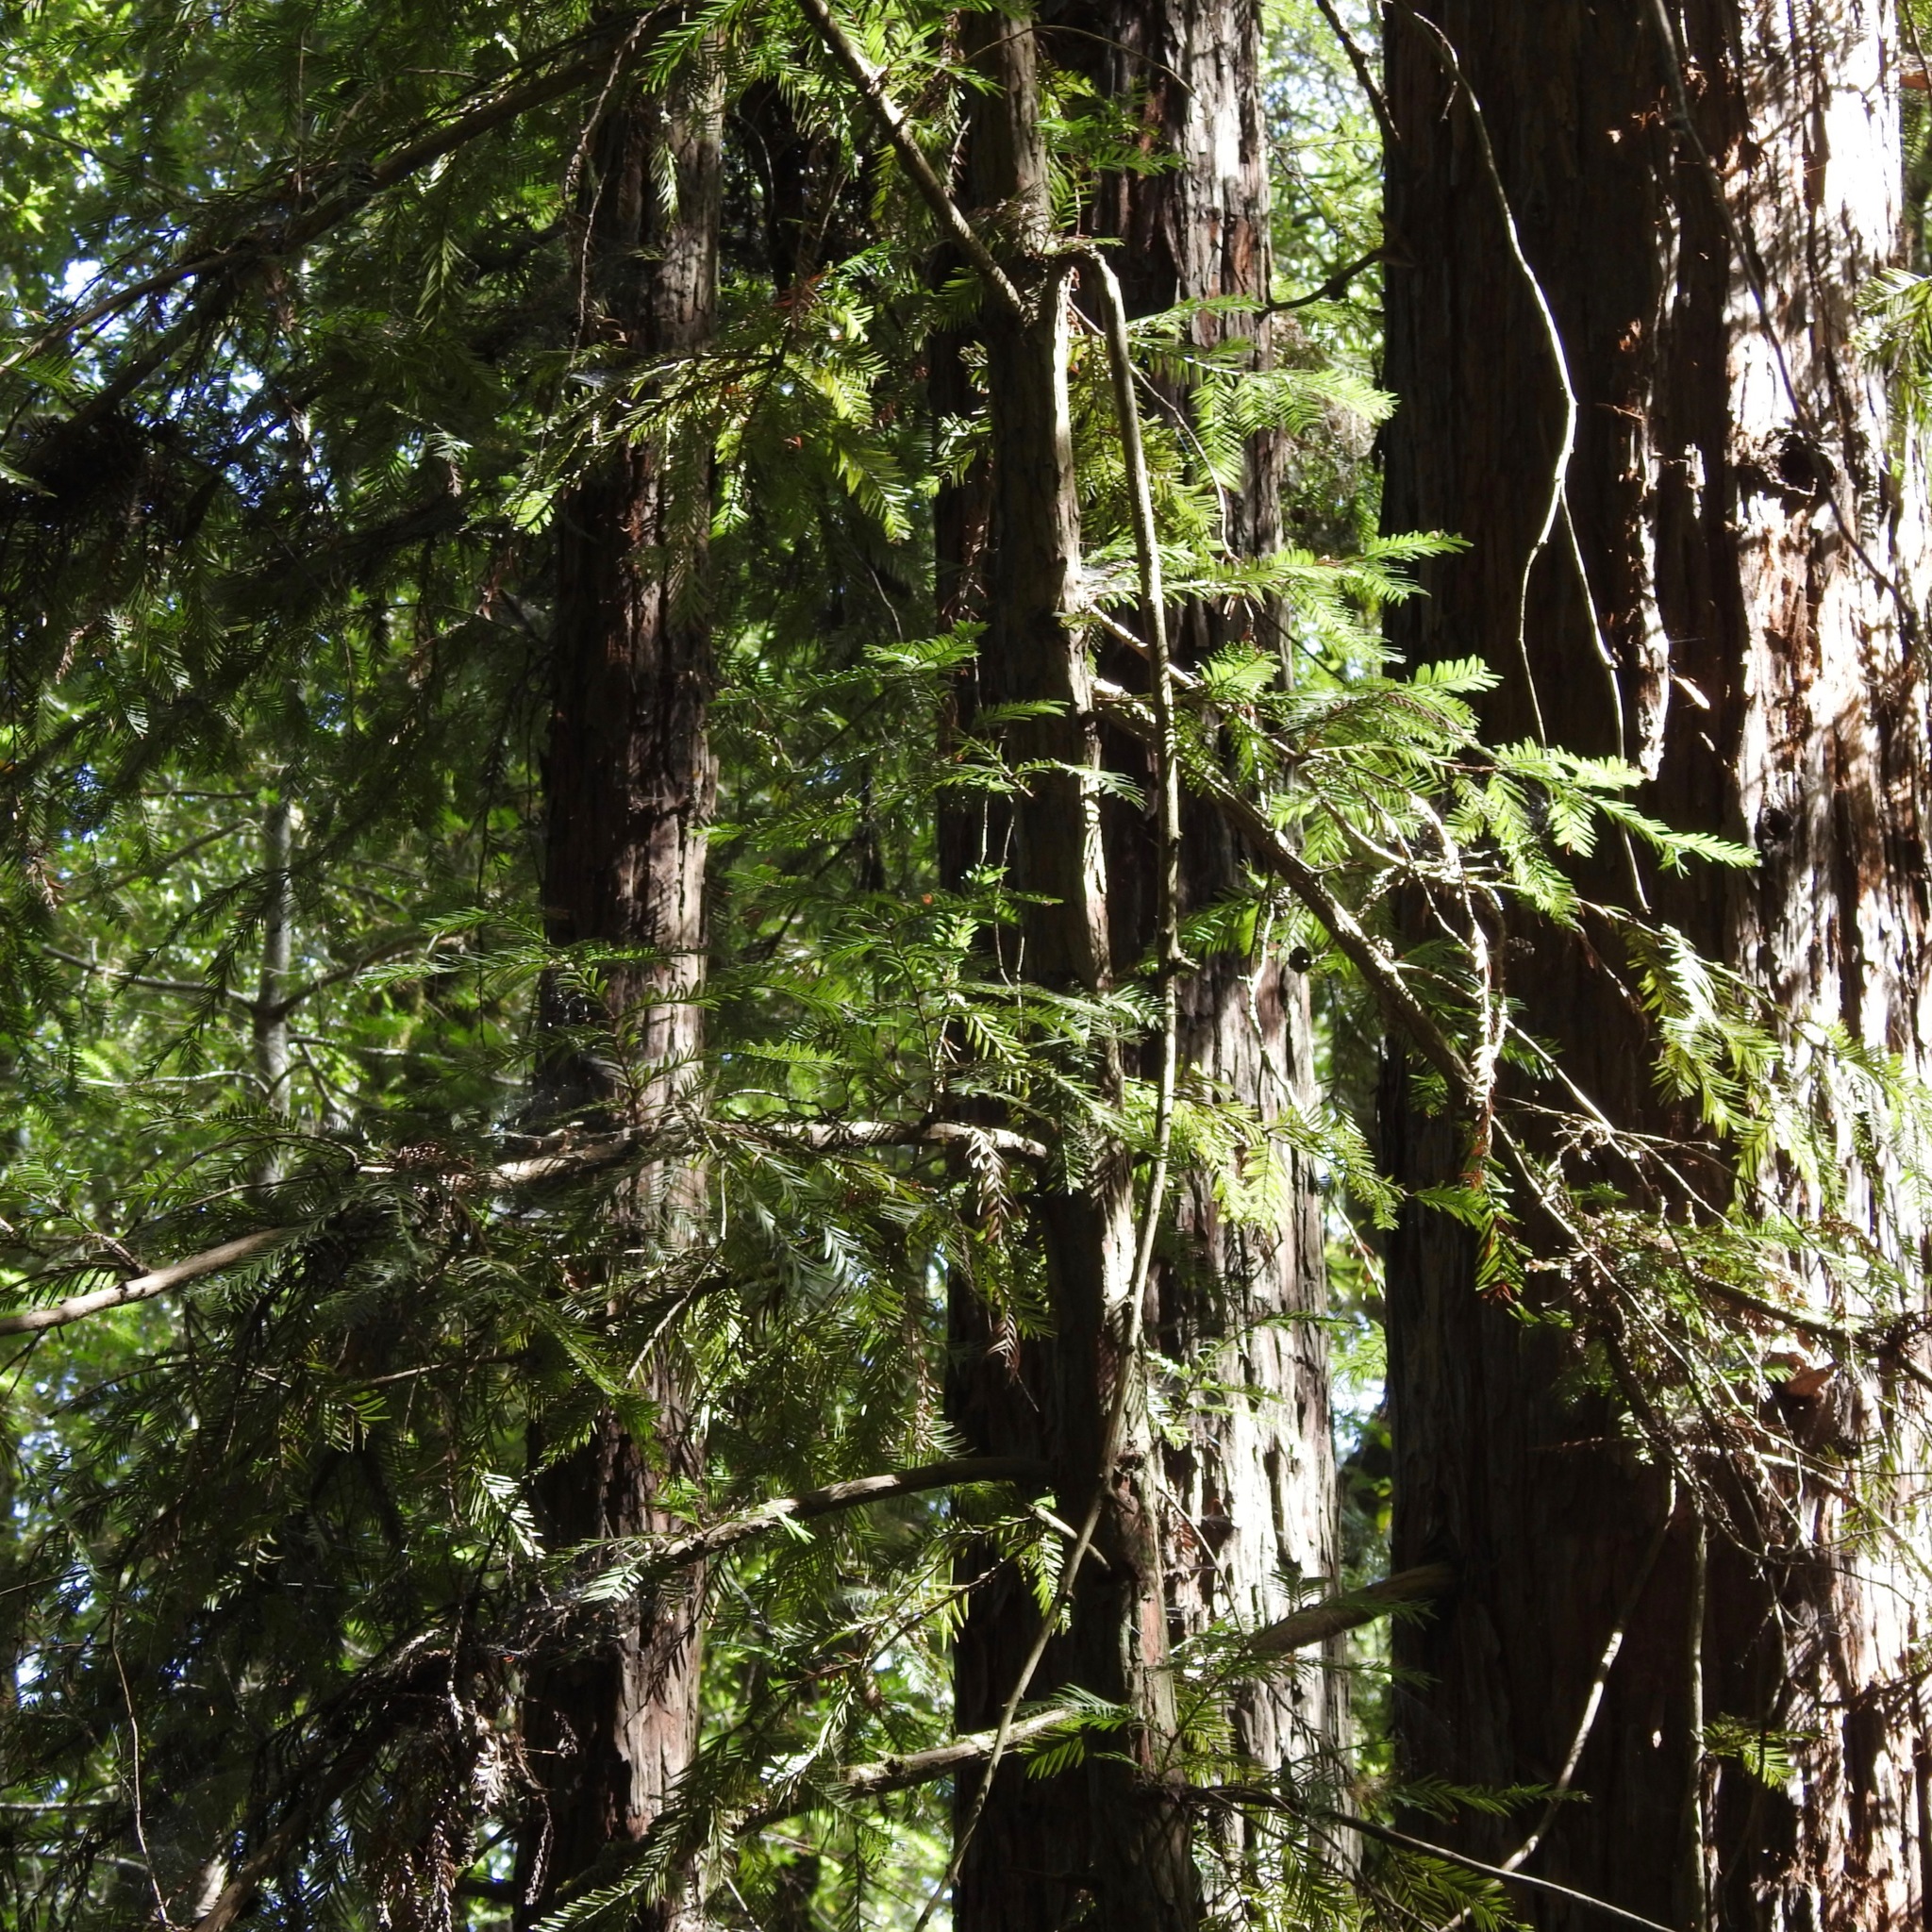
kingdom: Plantae
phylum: Tracheophyta
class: Pinopsida
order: Pinales
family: Cupressaceae
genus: Sequoia
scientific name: Sequoia sempervirens
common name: Coast redwood
